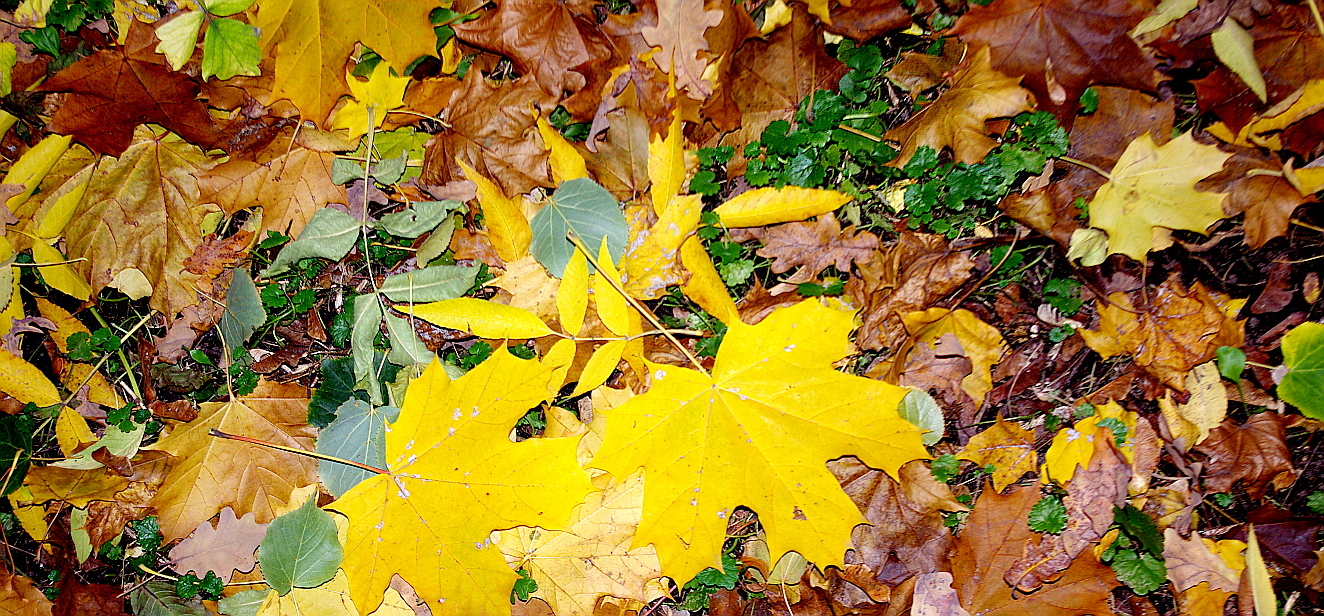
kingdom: Plantae
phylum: Tracheophyta
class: Magnoliopsida
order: Lamiales
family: Lamiaceae
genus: Glechoma
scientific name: Glechoma hederacea
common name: Ground ivy
